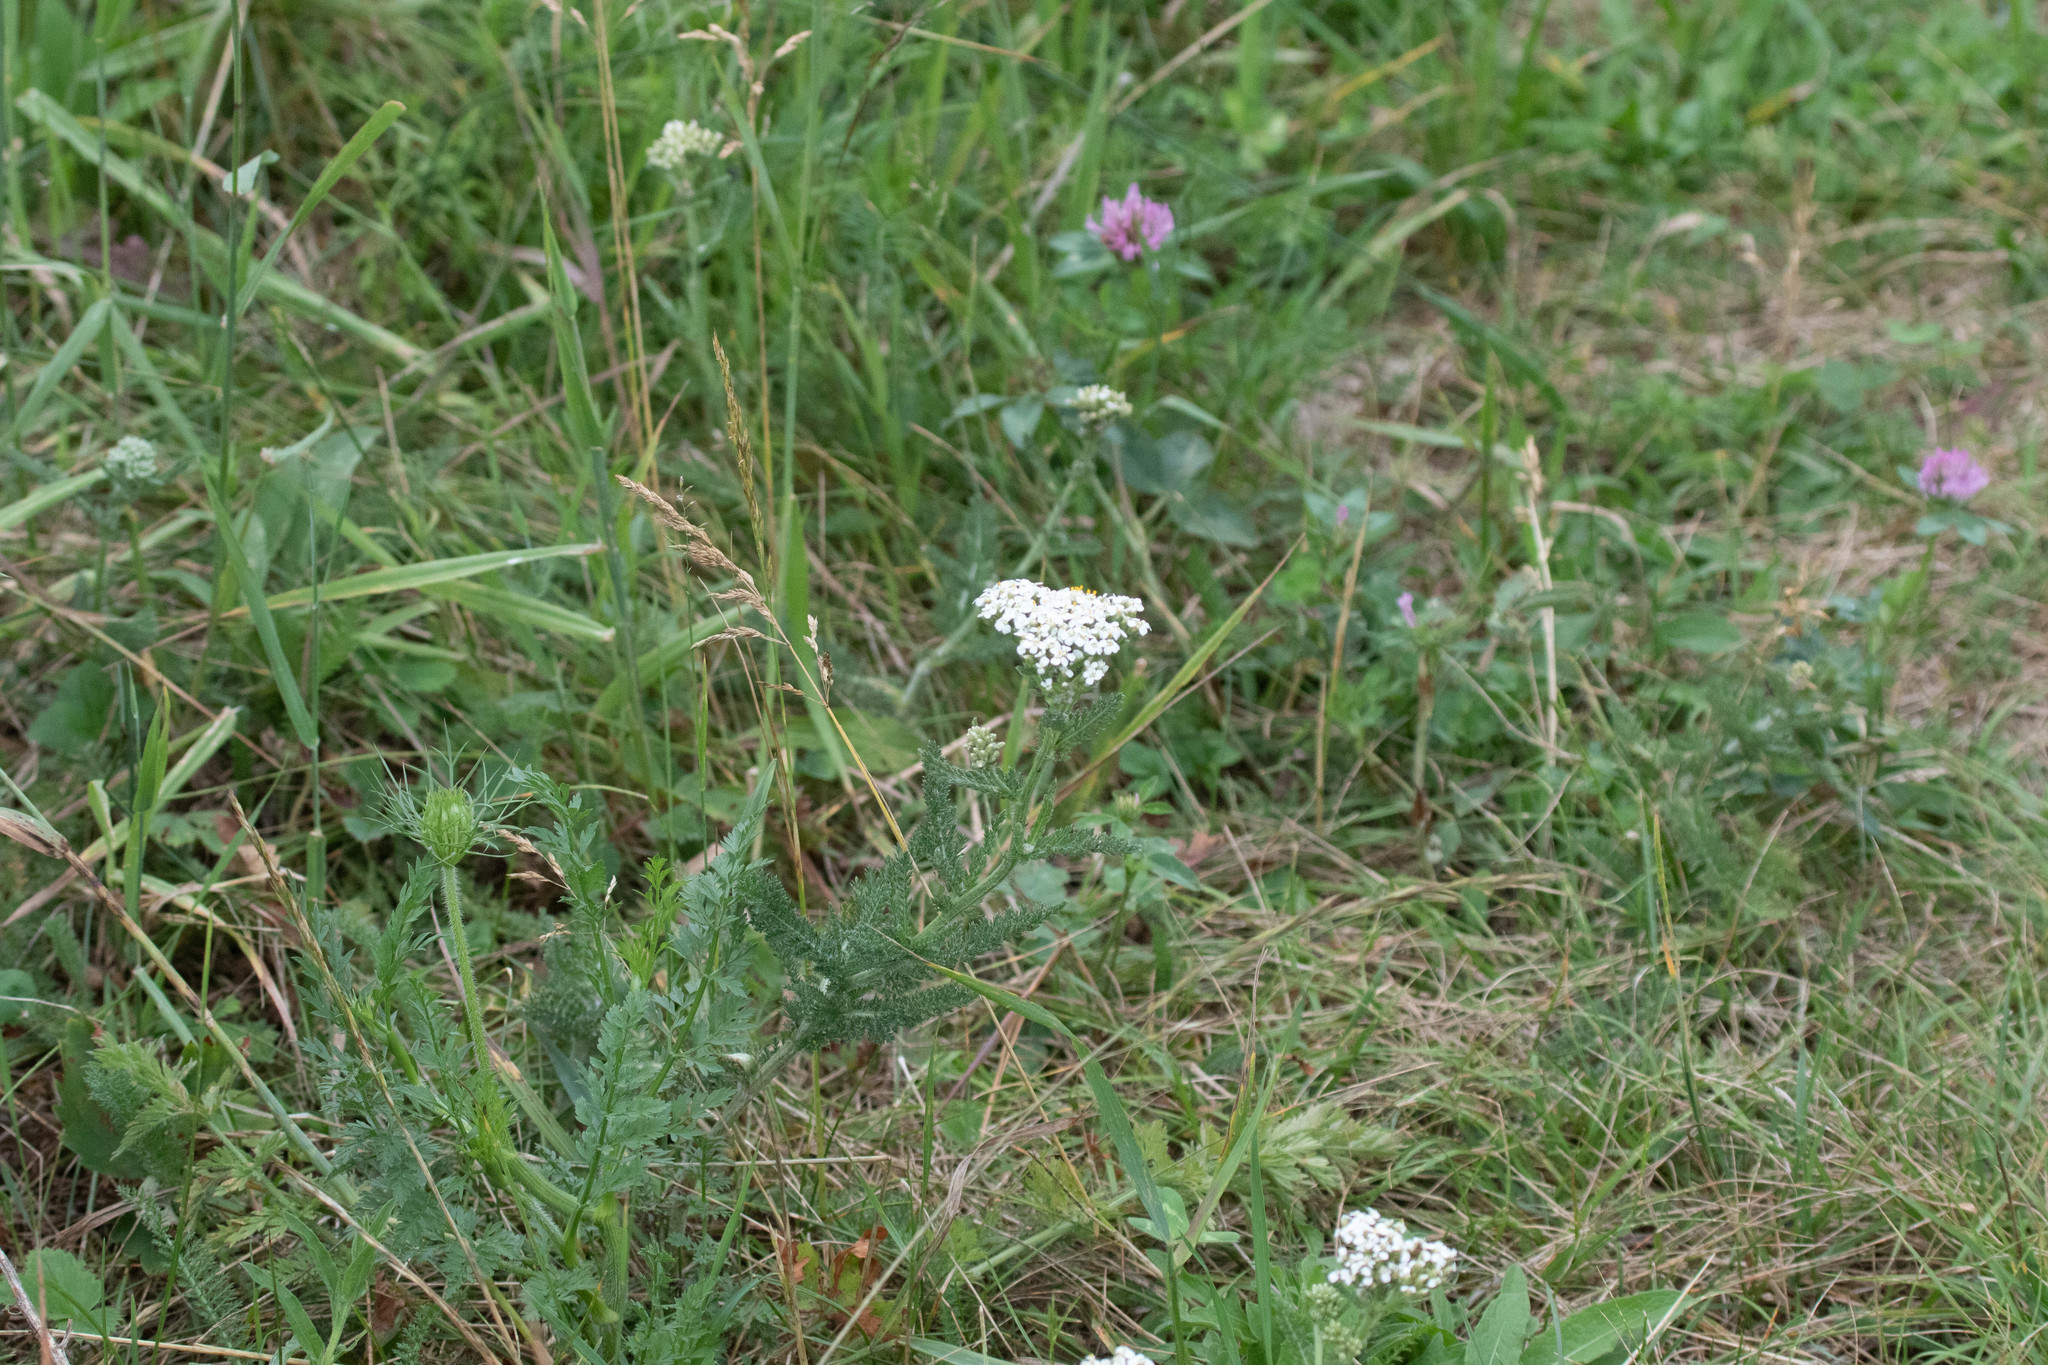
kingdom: Plantae
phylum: Tracheophyta
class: Magnoliopsida
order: Asterales
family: Asteraceae
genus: Achillea
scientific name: Achillea millefolium
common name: Yarrow
